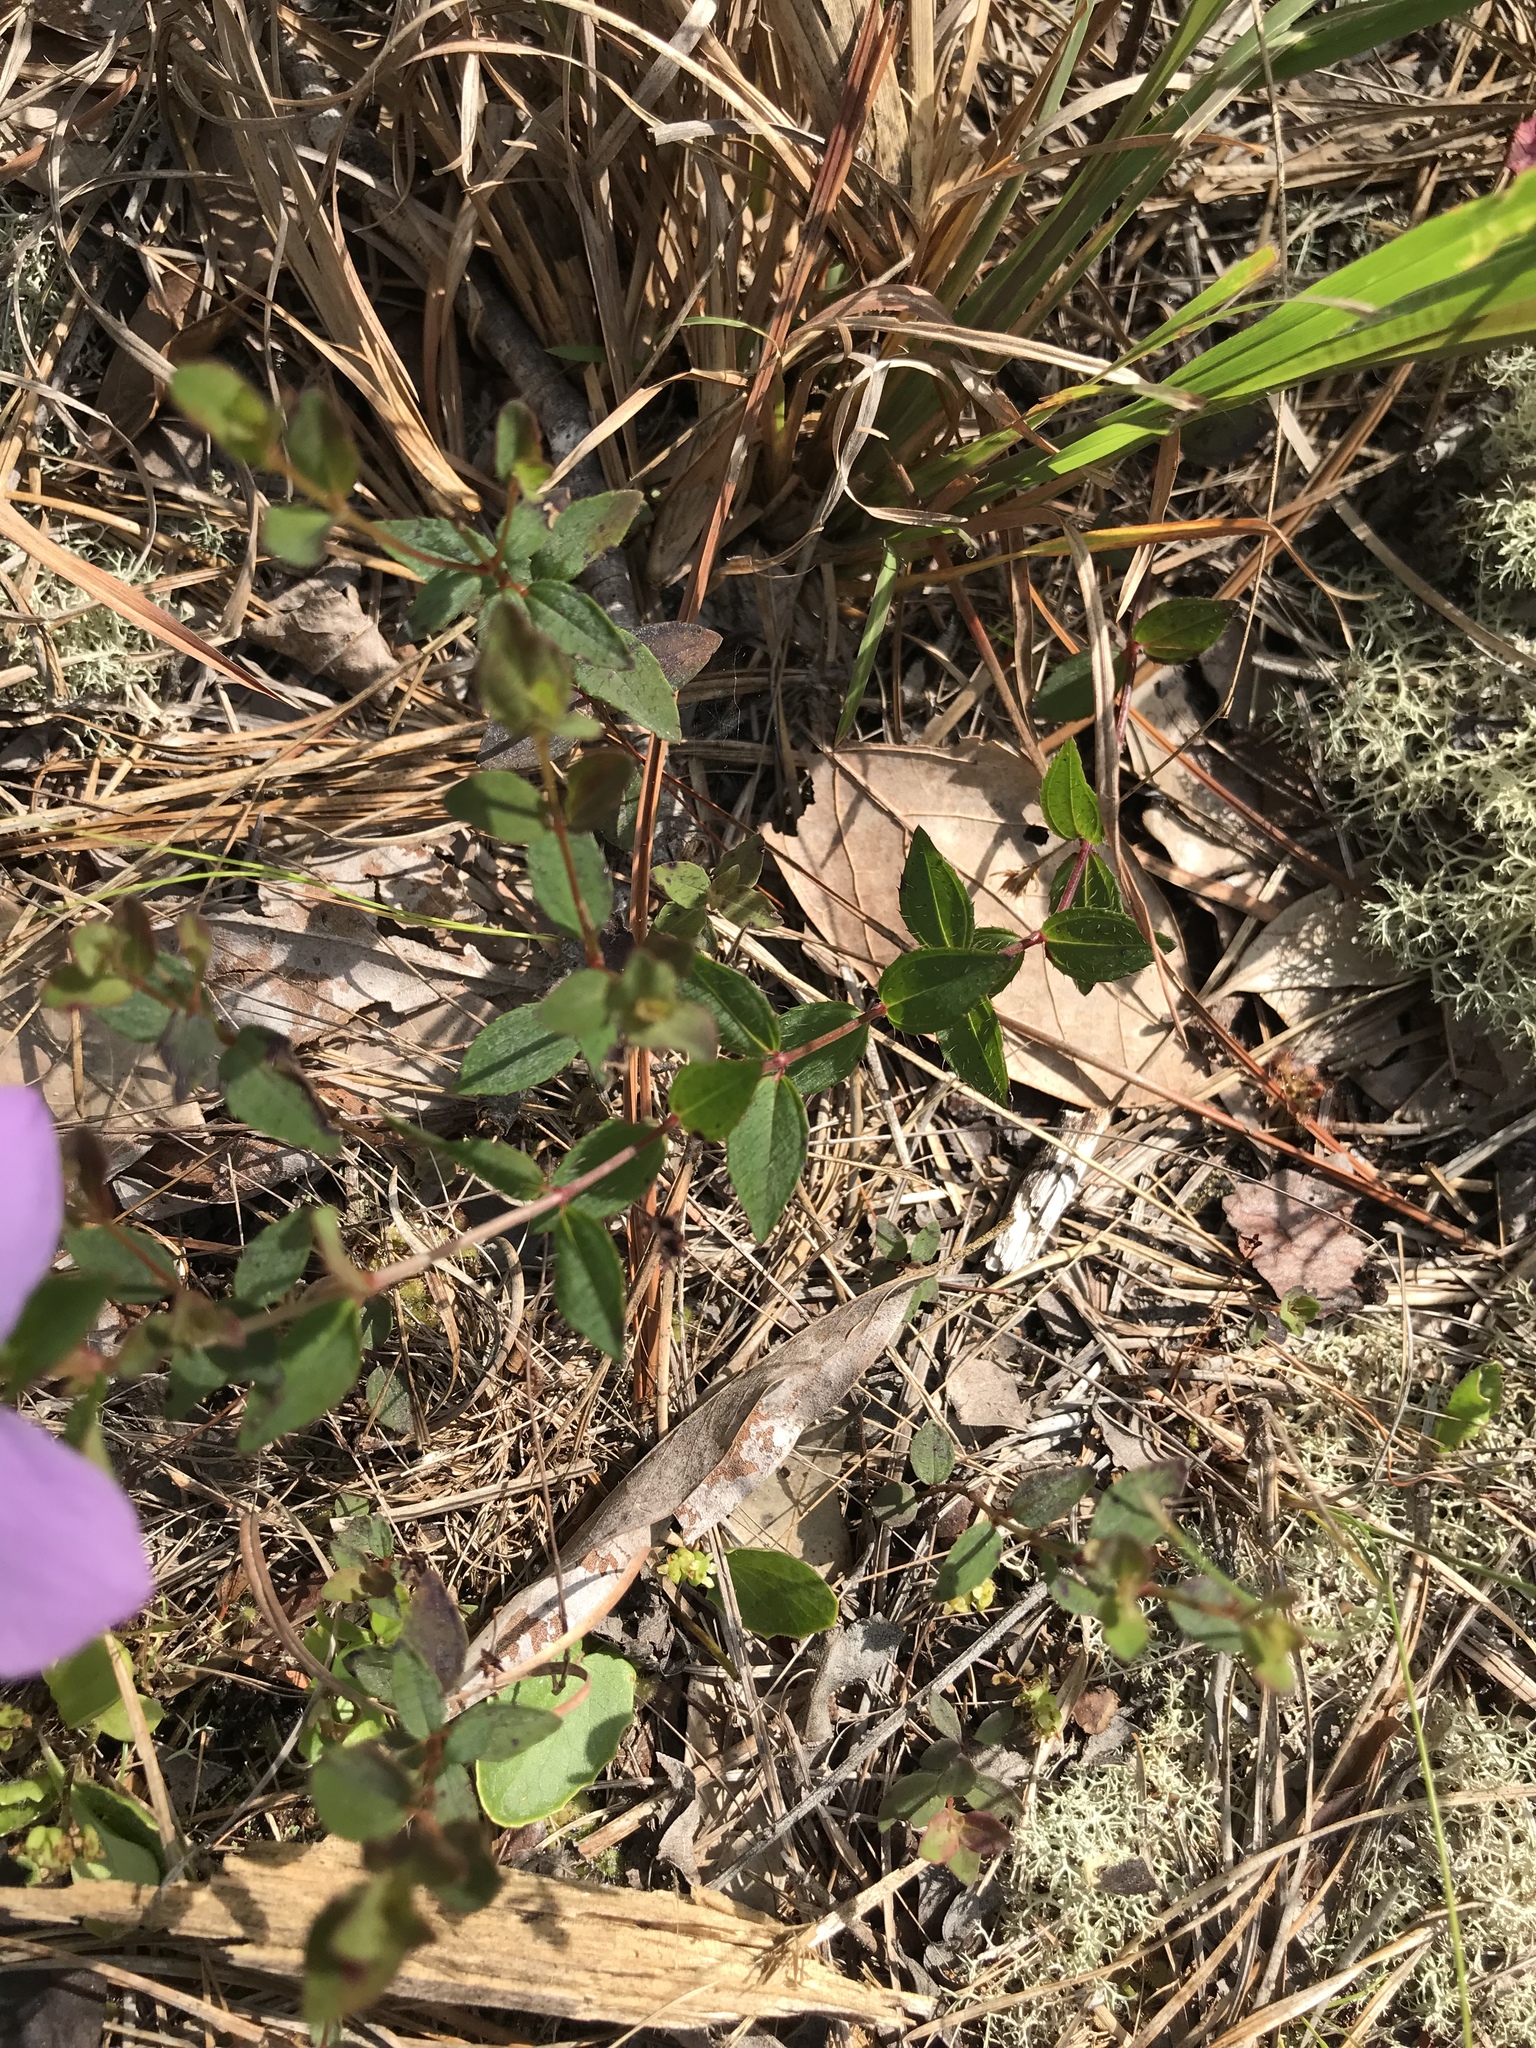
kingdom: Plantae
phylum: Tracheophyta
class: Magnoliopsida
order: Myrtales
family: Melastomataceae
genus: Rhexia
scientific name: Rhexia petiolata
